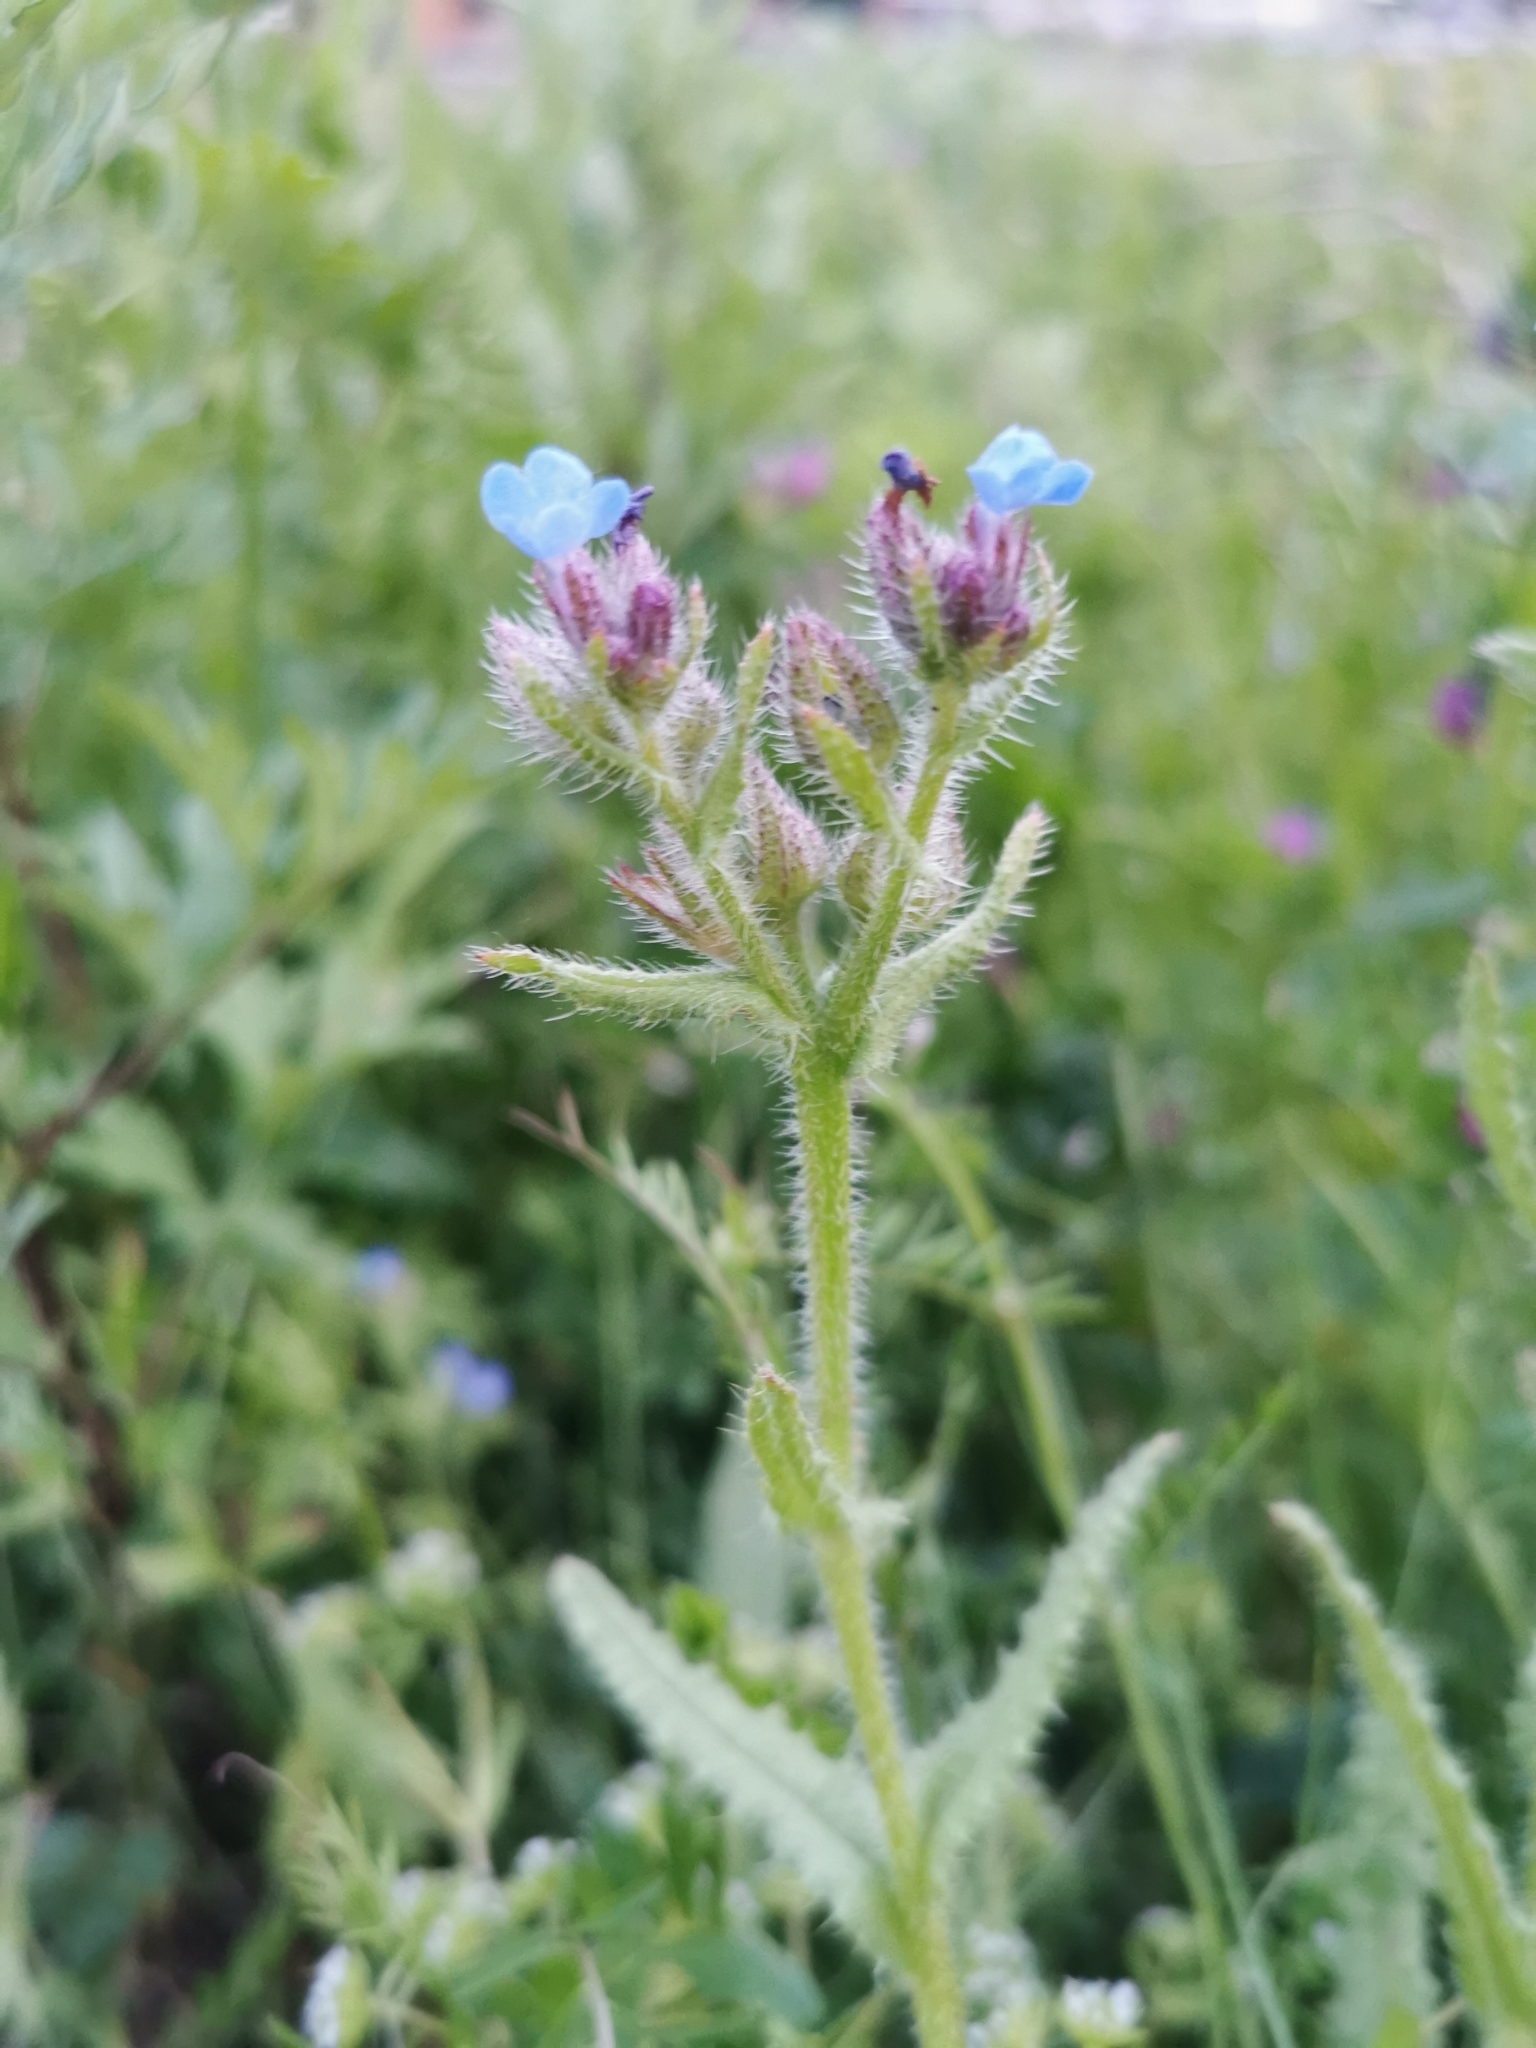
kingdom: Plantae
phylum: Tracheophyta
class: Magnoliopsida
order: Boraginales
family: Boraginaceae
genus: Lycopsis
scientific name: Lycopsis arvensis
